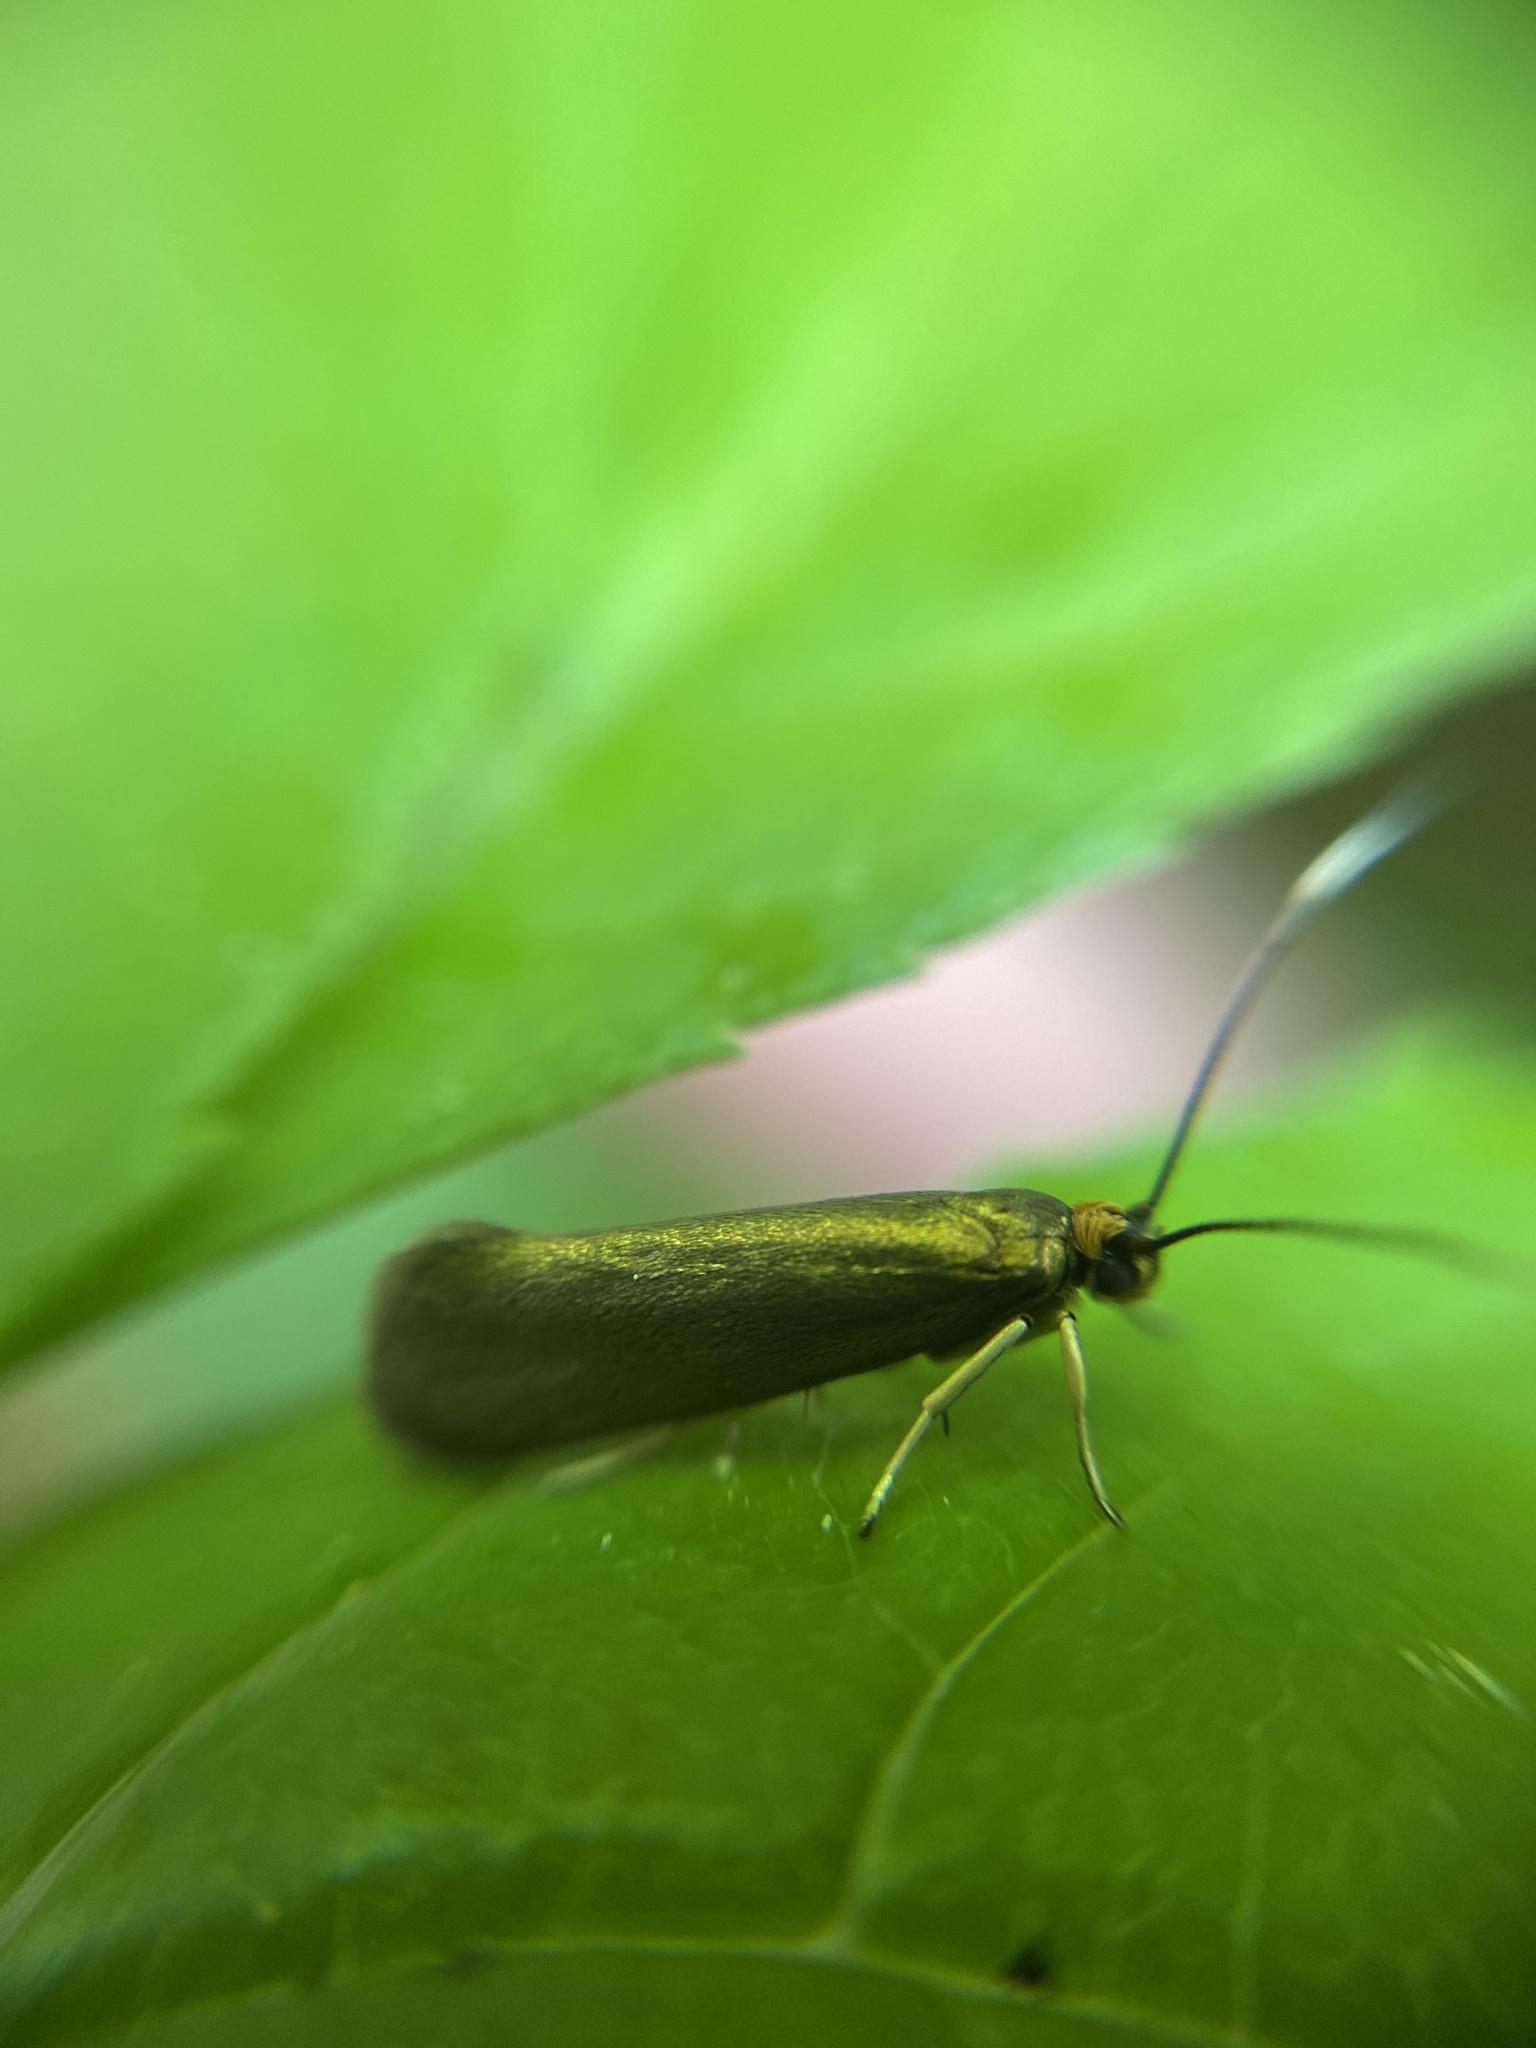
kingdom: Animalia
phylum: Arthropoda
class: Insecta
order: Lepidoptera
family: Adelidae
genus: Adela
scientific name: Adela viridella
